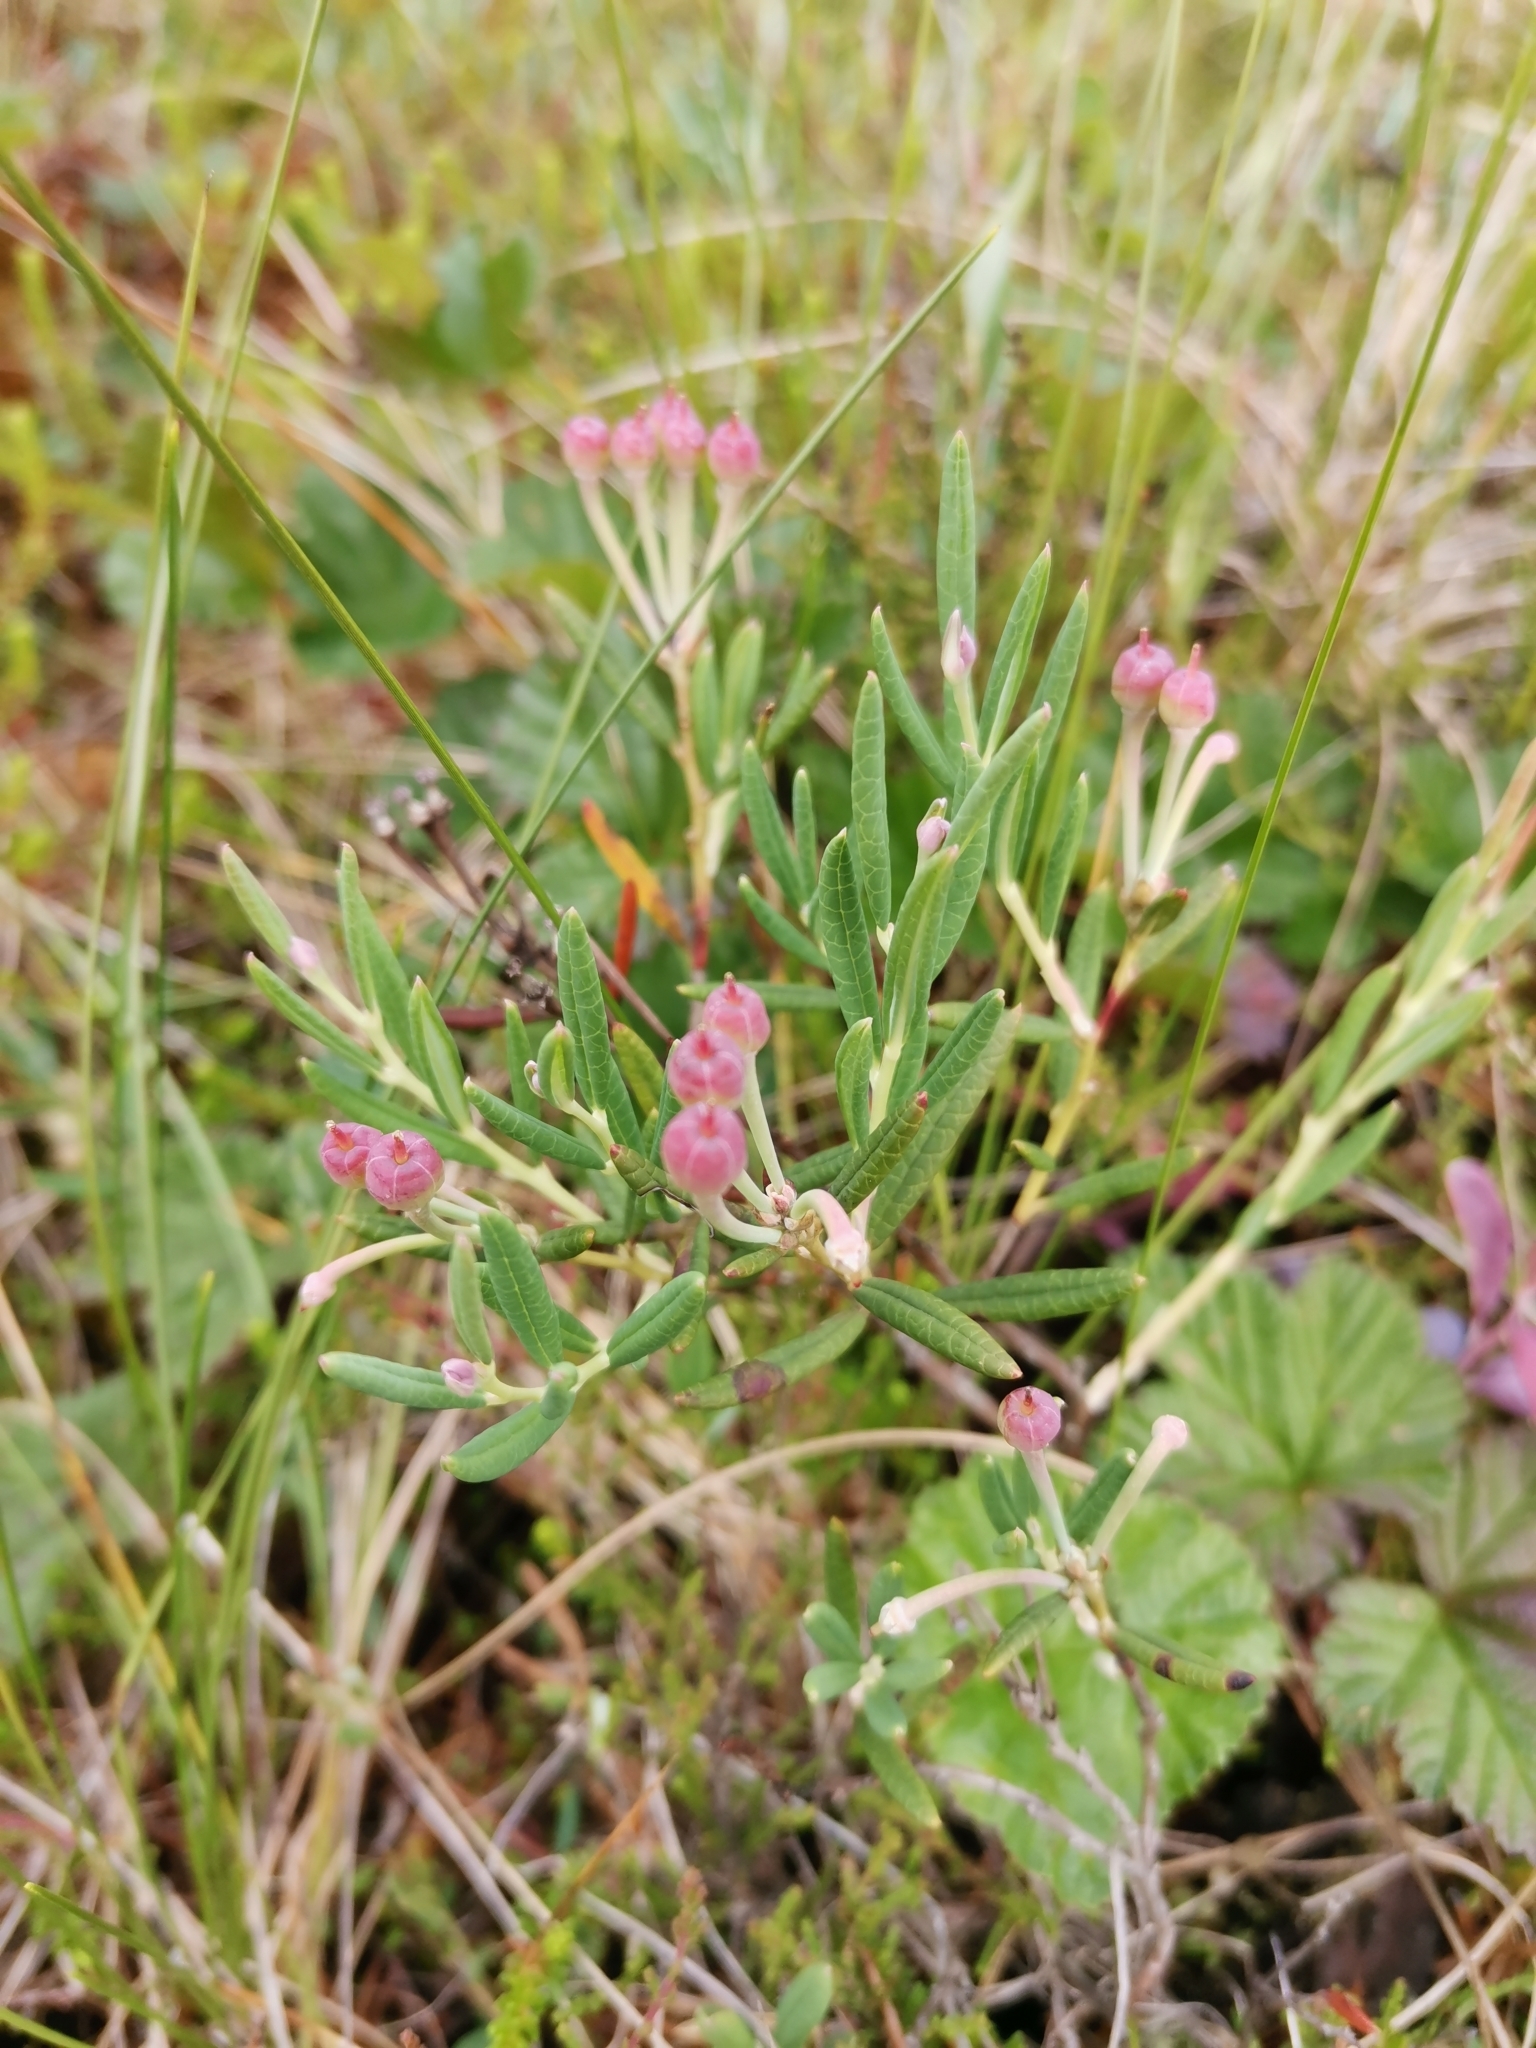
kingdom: Plantae
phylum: Tracheophyta
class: Magnoliopsida
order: Ericales
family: Ericaceae
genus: Andromeda
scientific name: Andromeda polifolia
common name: Bog-rosemary
